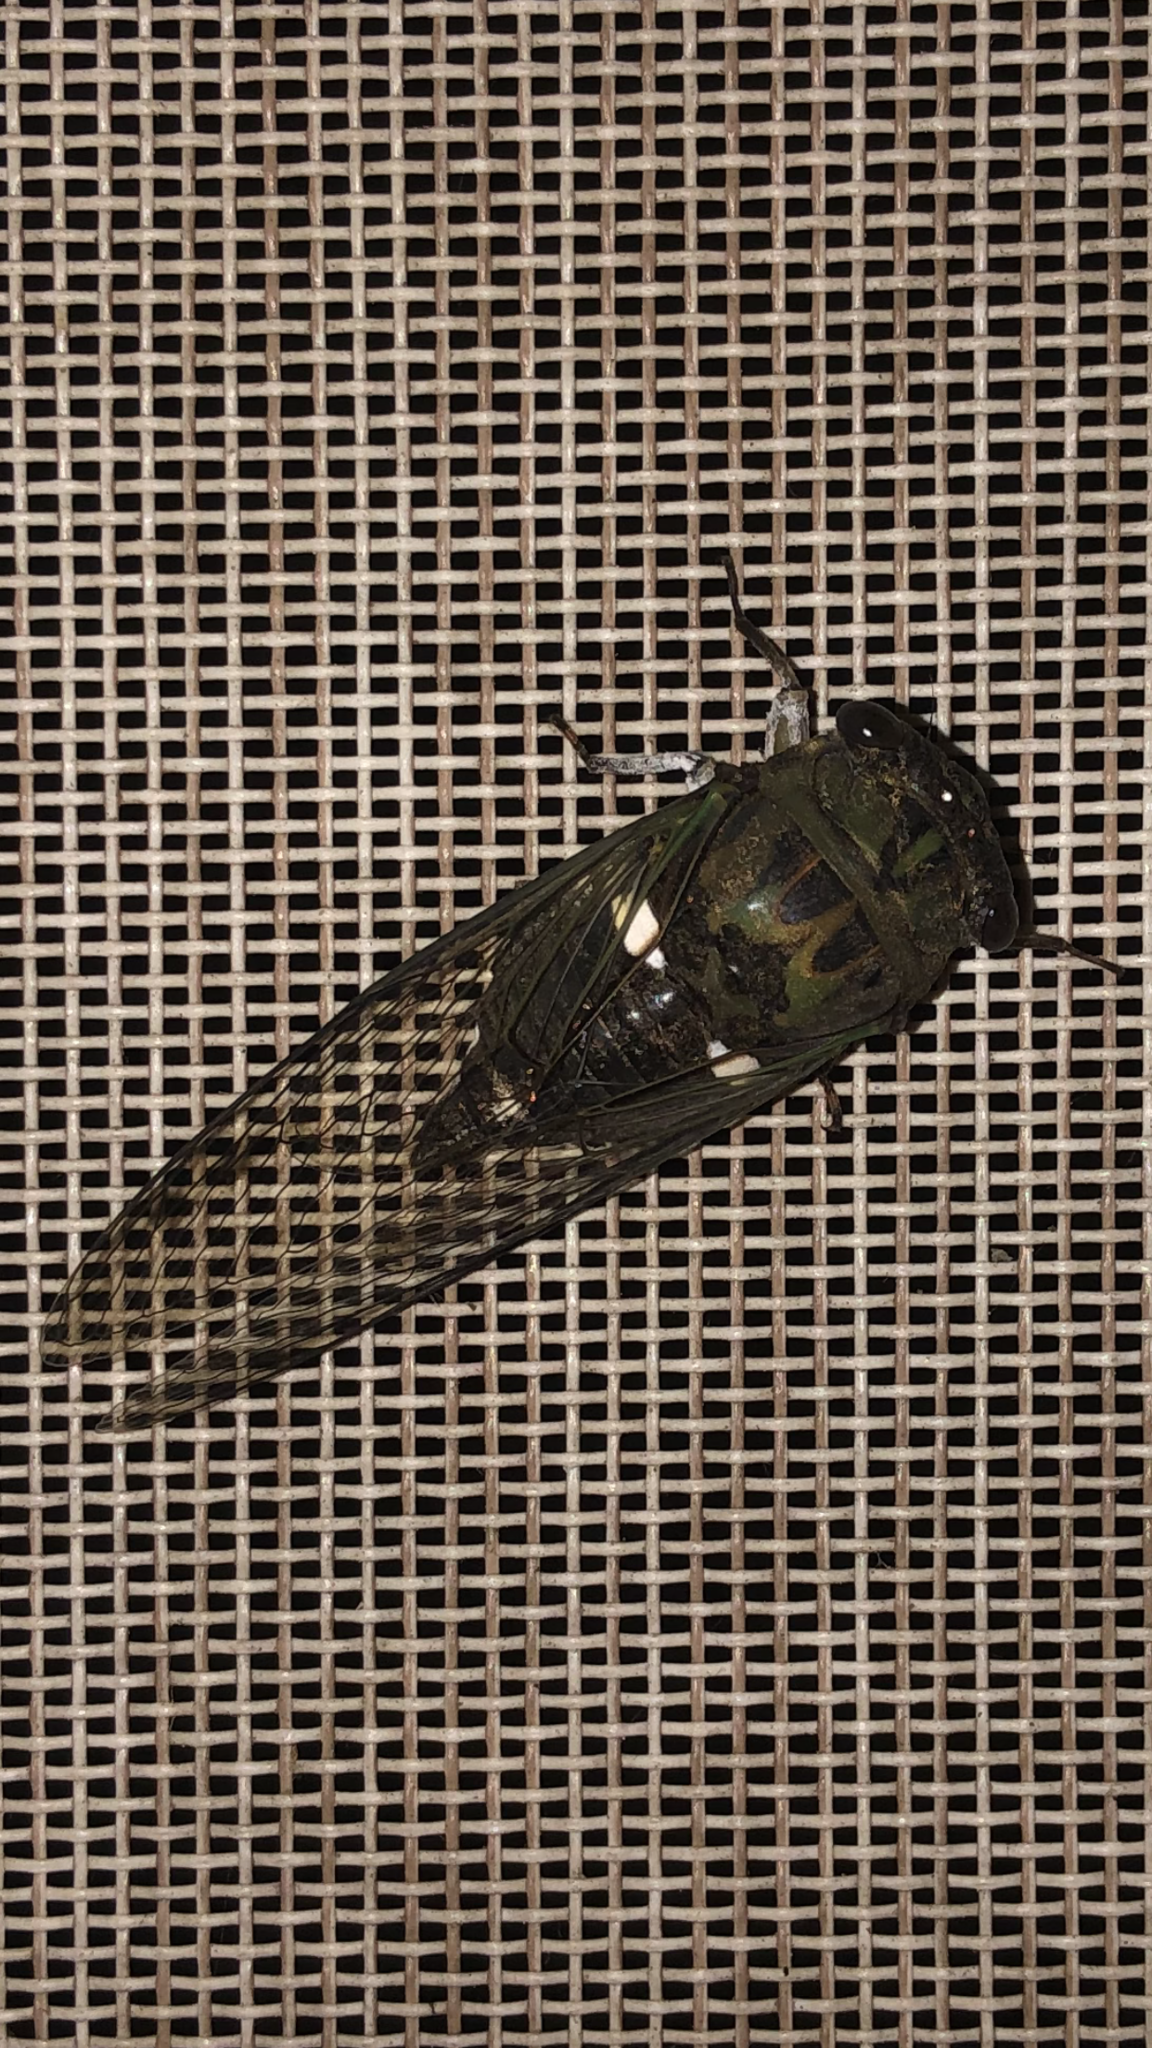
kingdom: Animalia
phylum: Arthropoda
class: Insecta
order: Hemiptera
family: Cicadidae
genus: Neotibicen
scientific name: Neotibicen pruinosus
